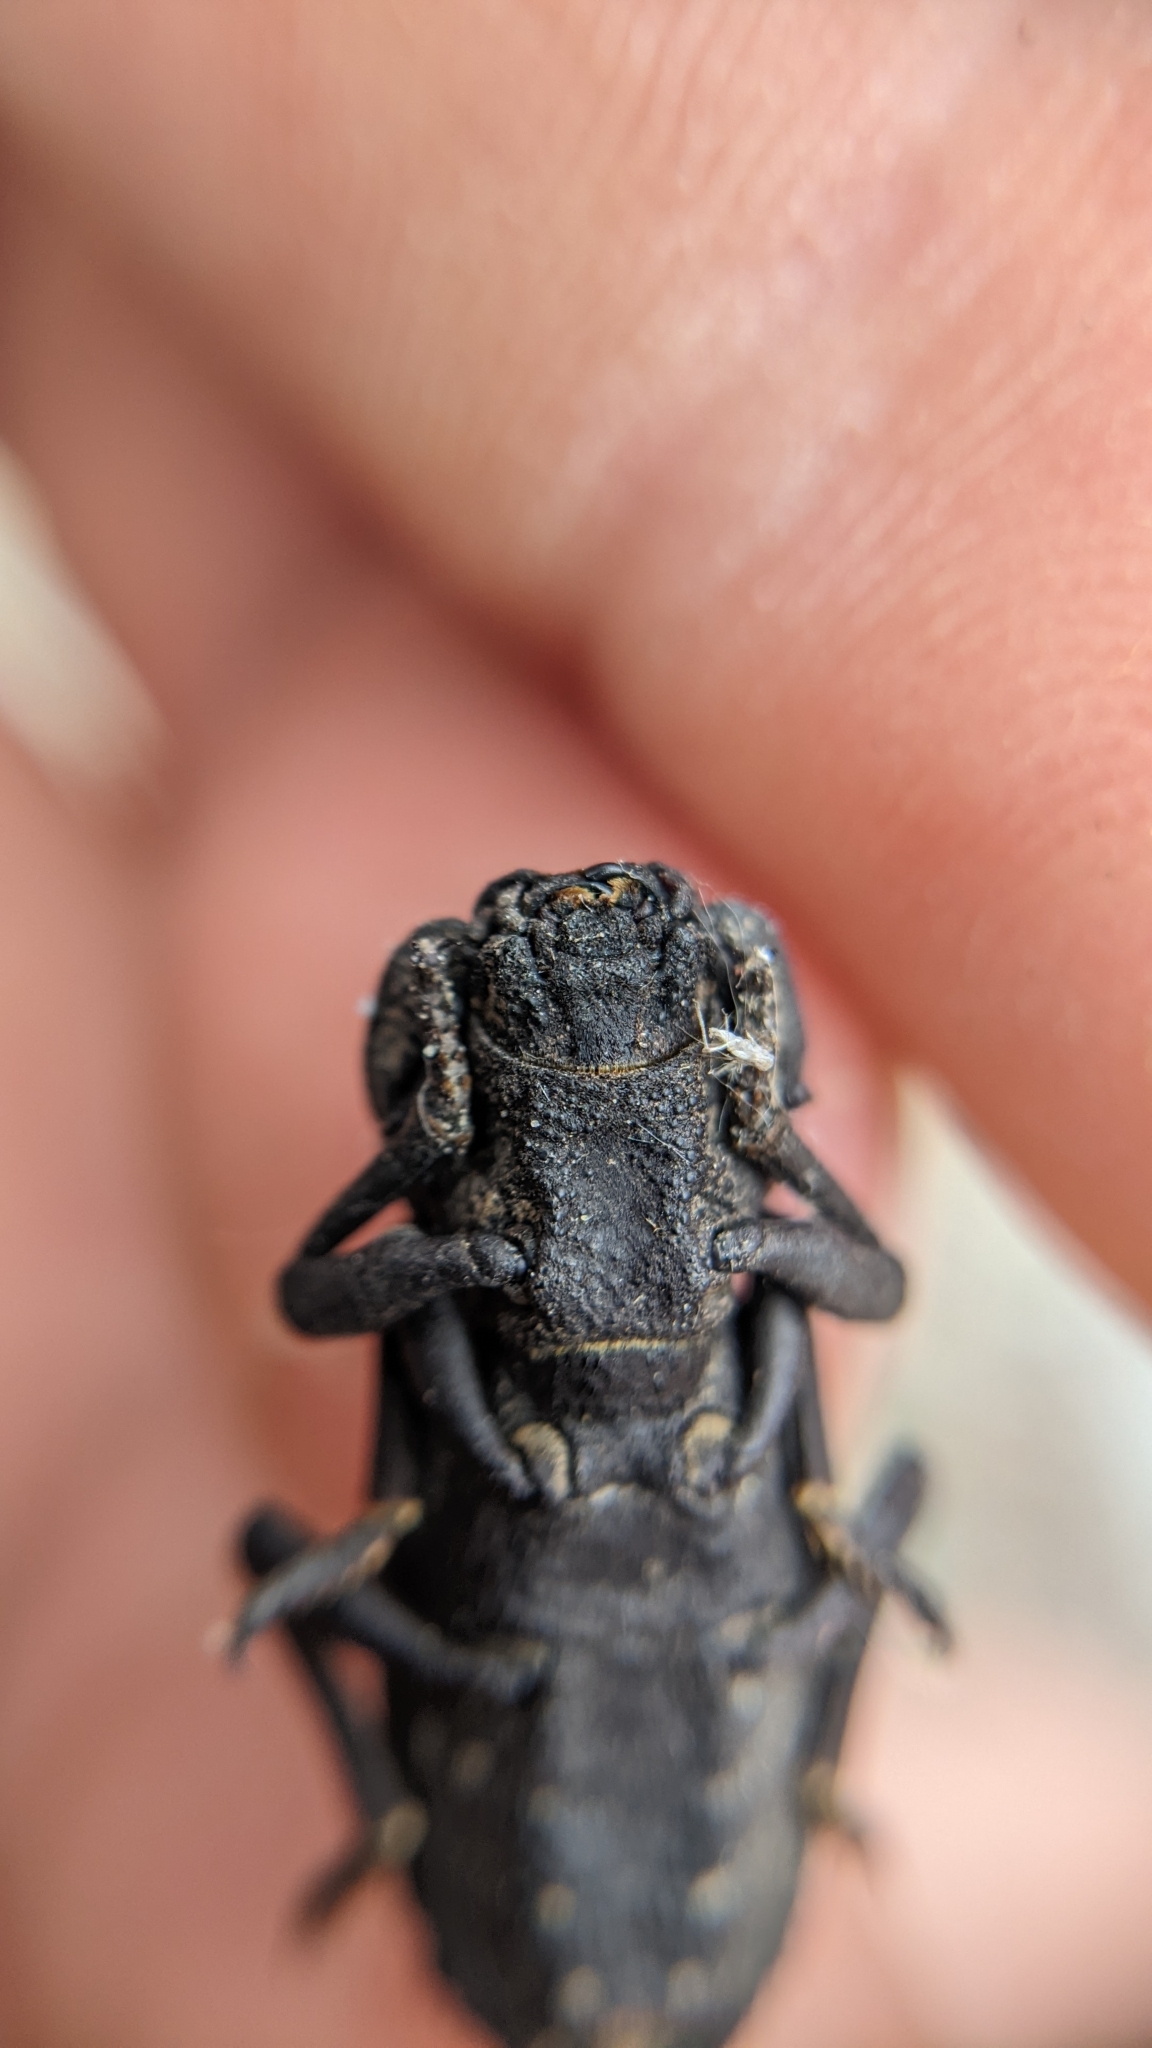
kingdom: Animalia
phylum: Arthropoda
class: Insecta
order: Coleoptera
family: Zopheridae
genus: Phloeodes
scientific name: Phloeodes diabolicus
